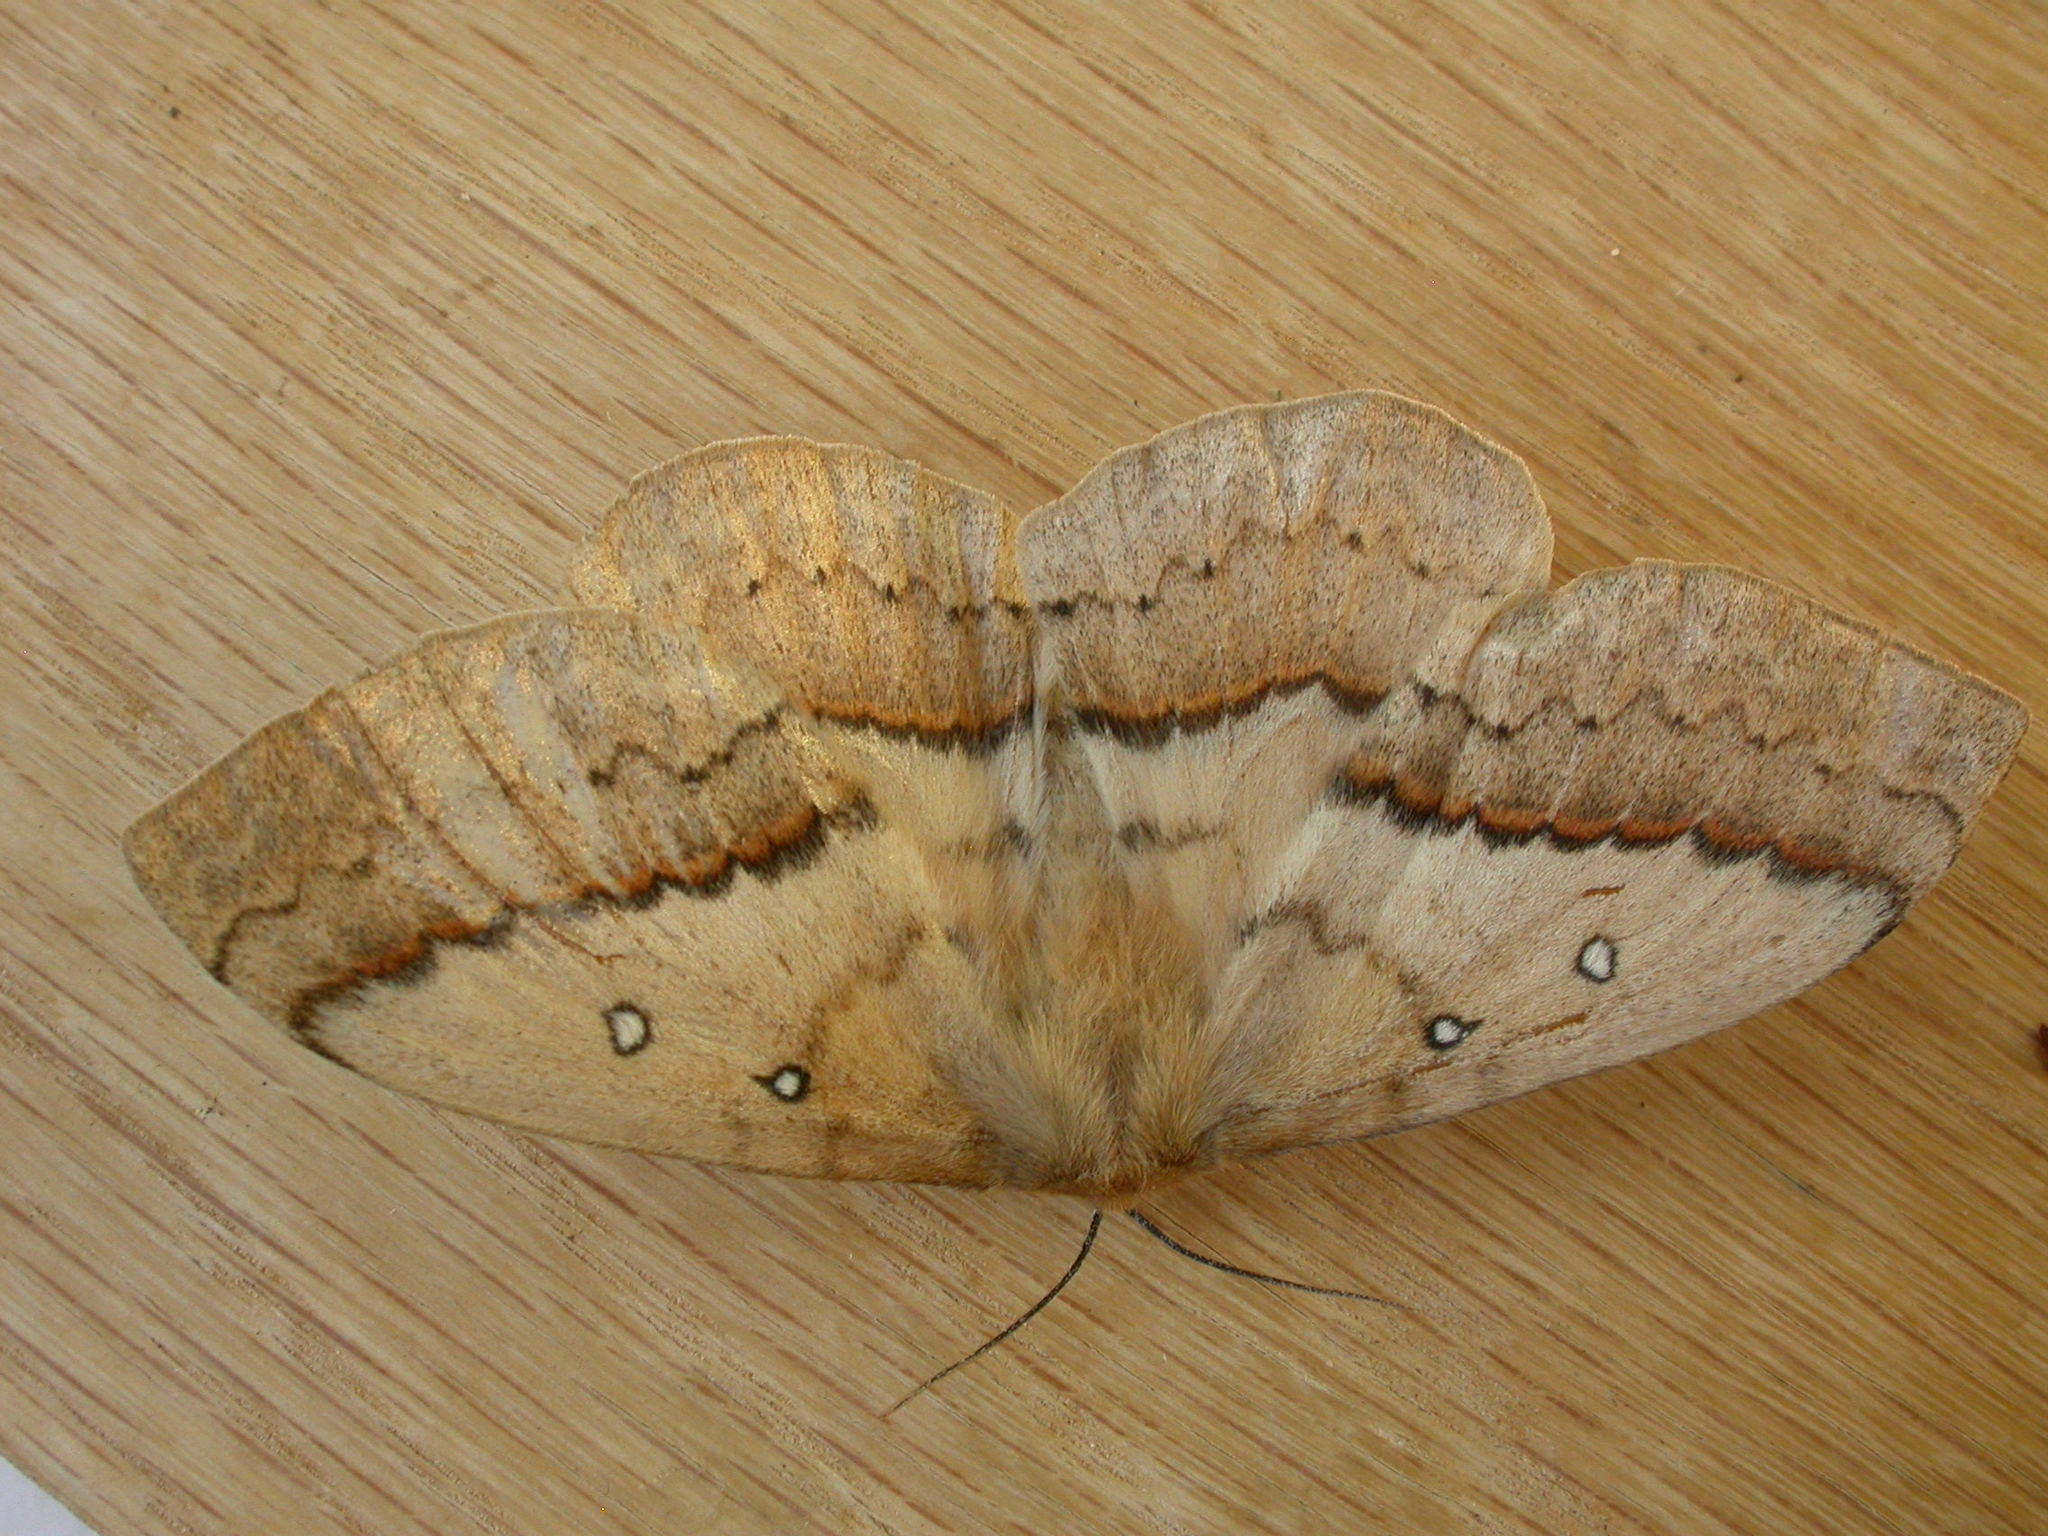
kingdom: Animalia
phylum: Arthropoda
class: Insecta
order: Lepidoptera
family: Anthelidae
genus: Anthela
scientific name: Anthela nicothoe
